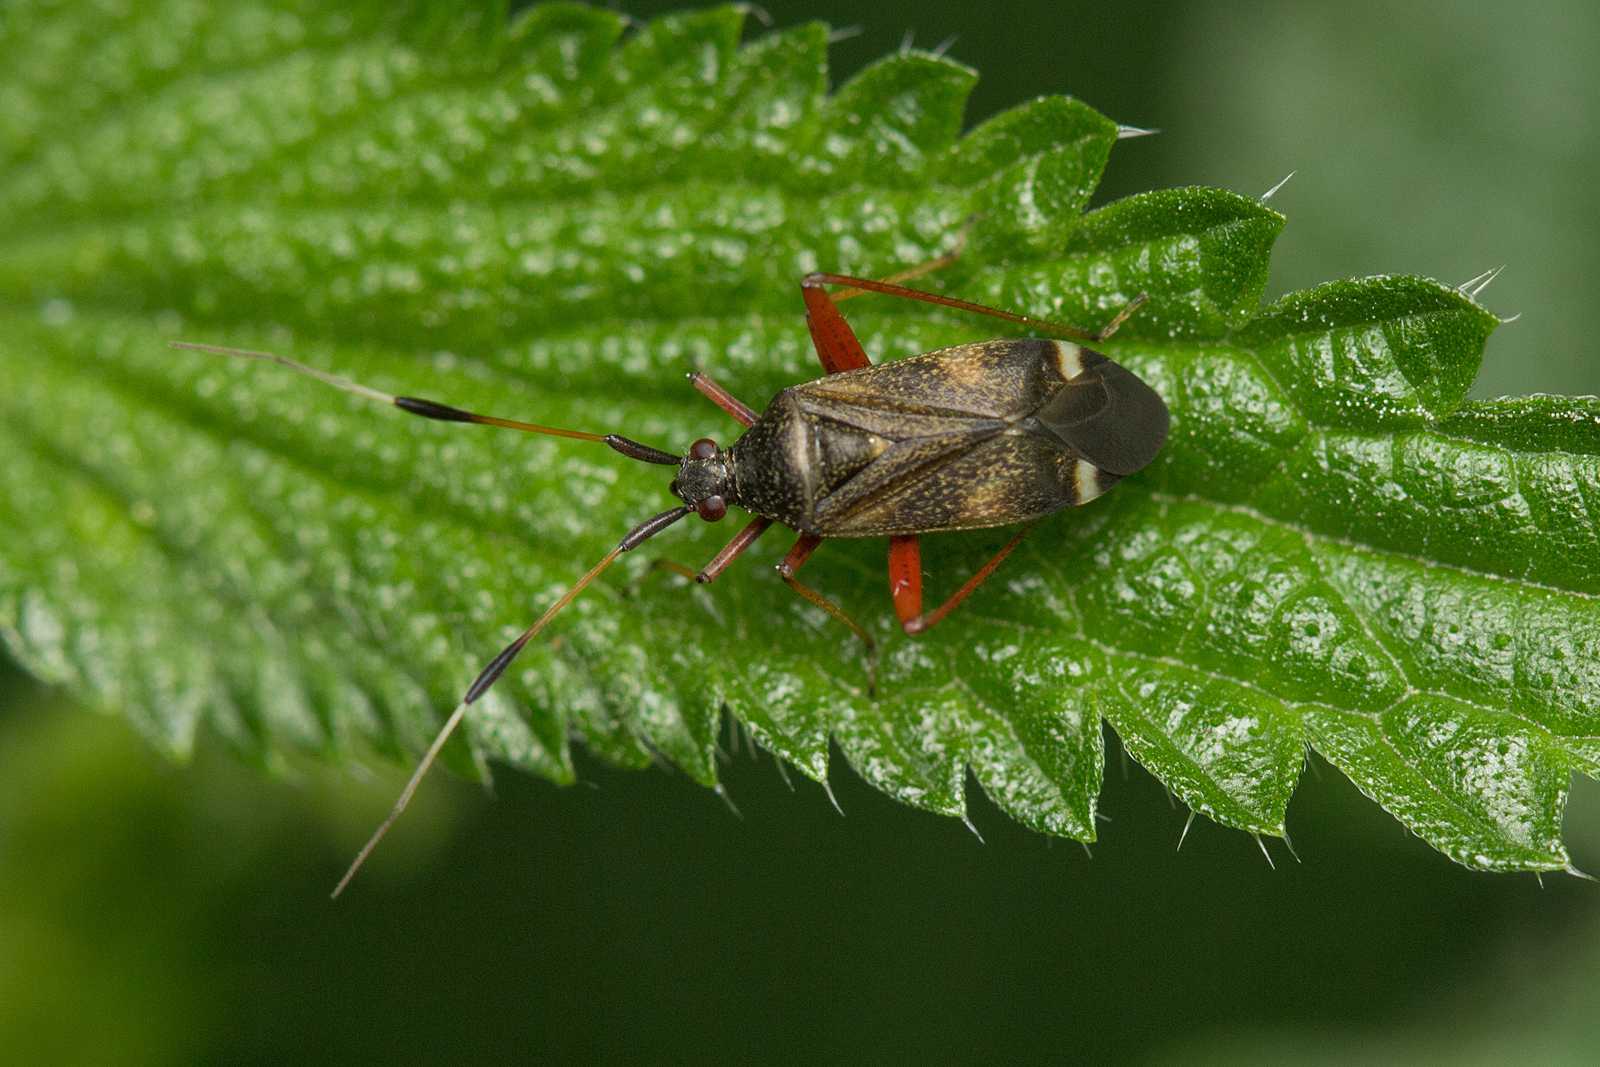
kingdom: Animalia
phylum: Arthropoda
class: Insecta
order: Hemiptera
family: Miridae
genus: Closterotomus
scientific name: Closterotomus biclavatus
